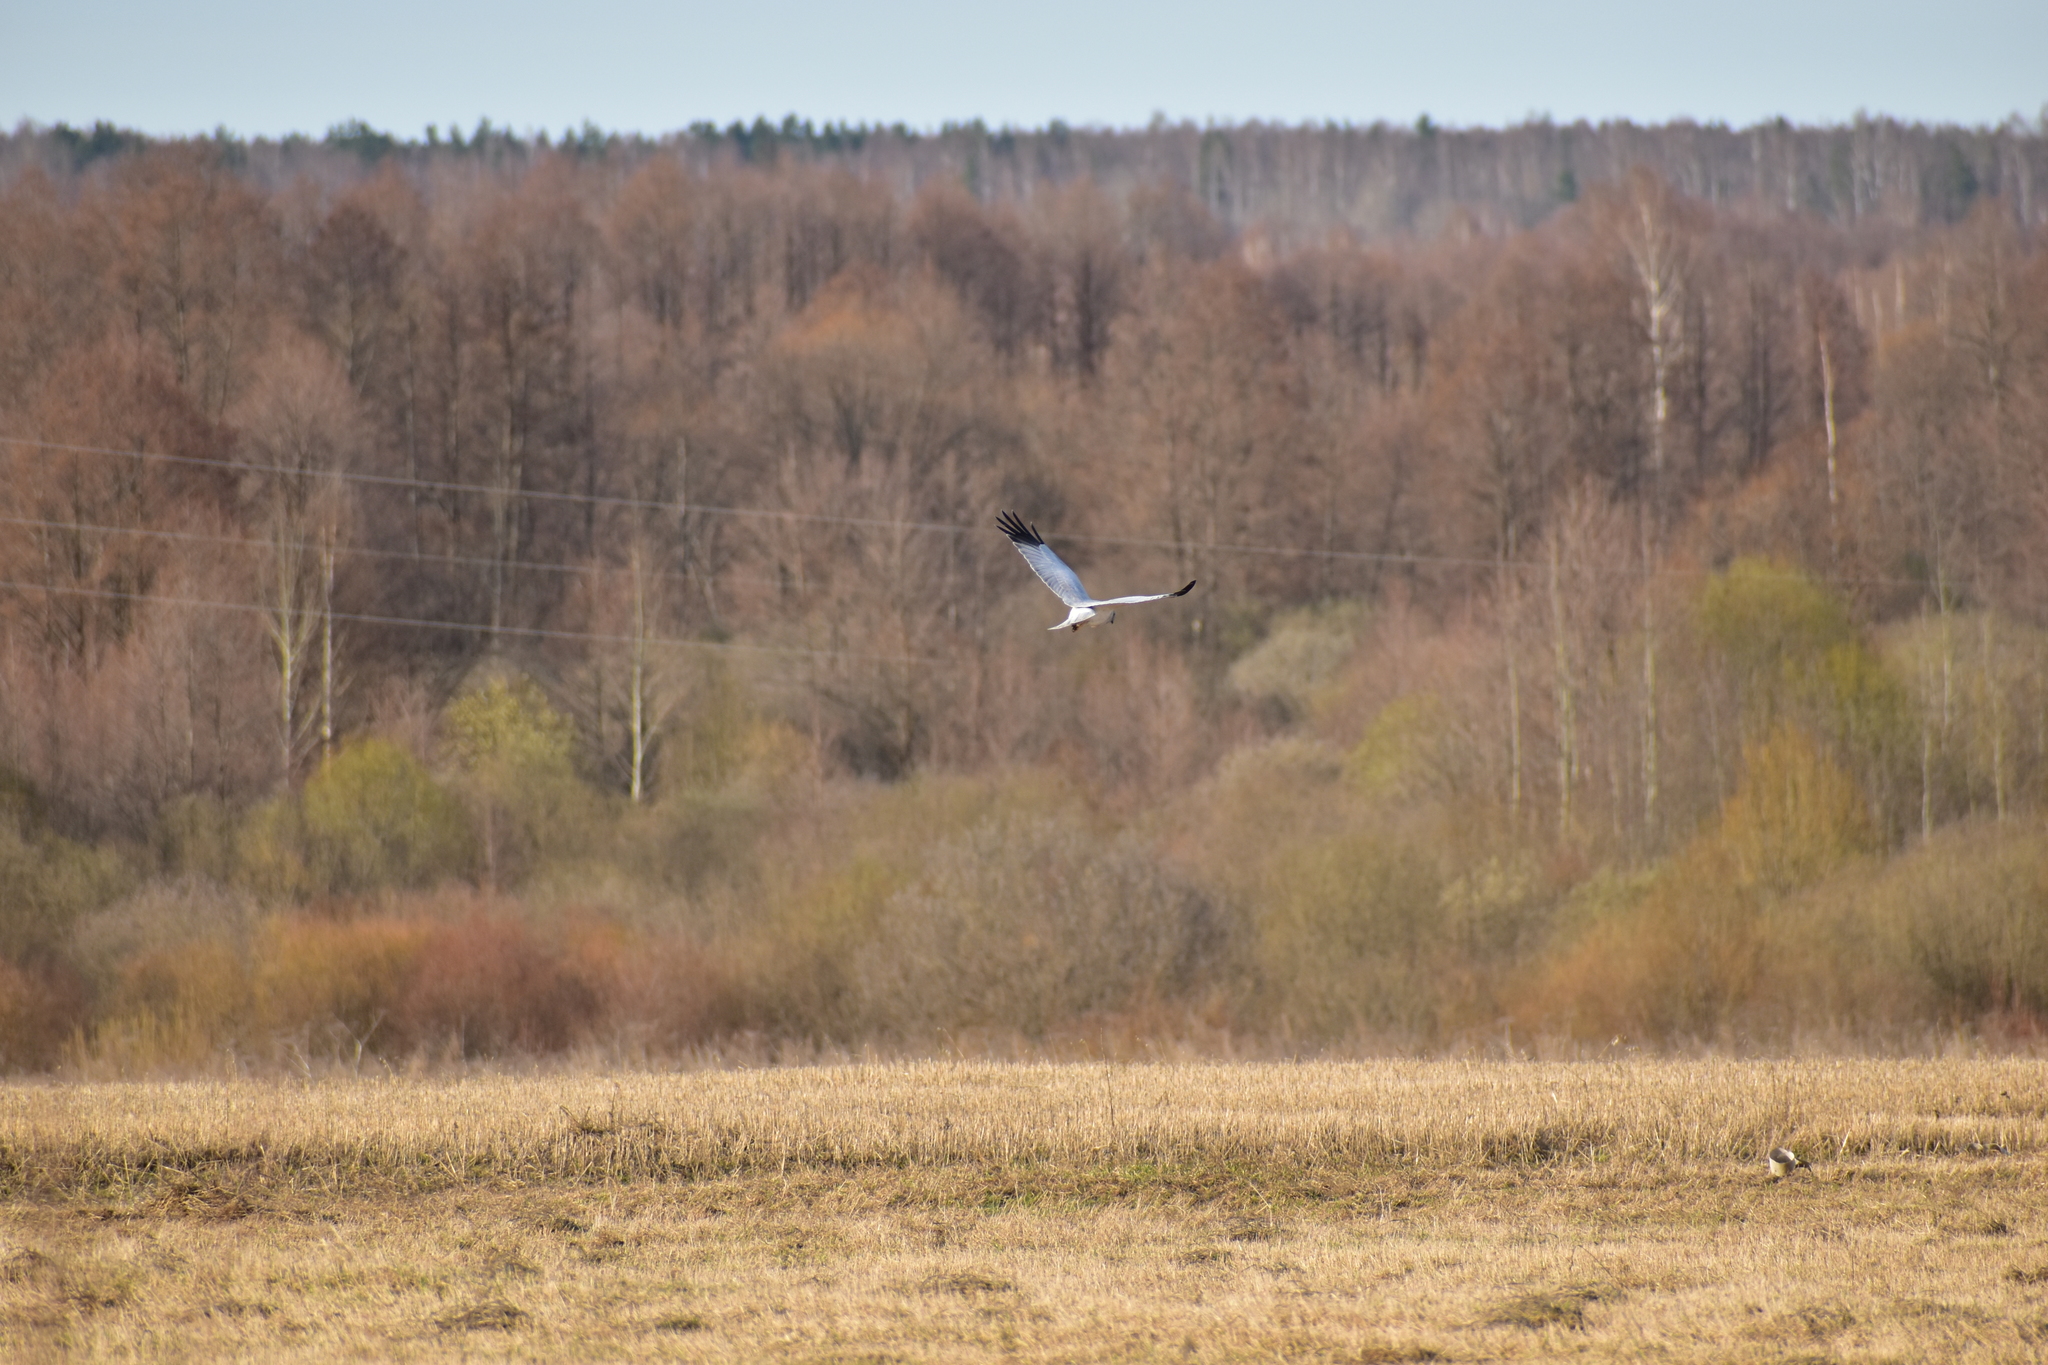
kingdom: Animalia
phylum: Chordata
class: Aves
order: Accipitriformes
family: Accipitridae
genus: Circus
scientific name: Circus cyaneus
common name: Hen harrier
